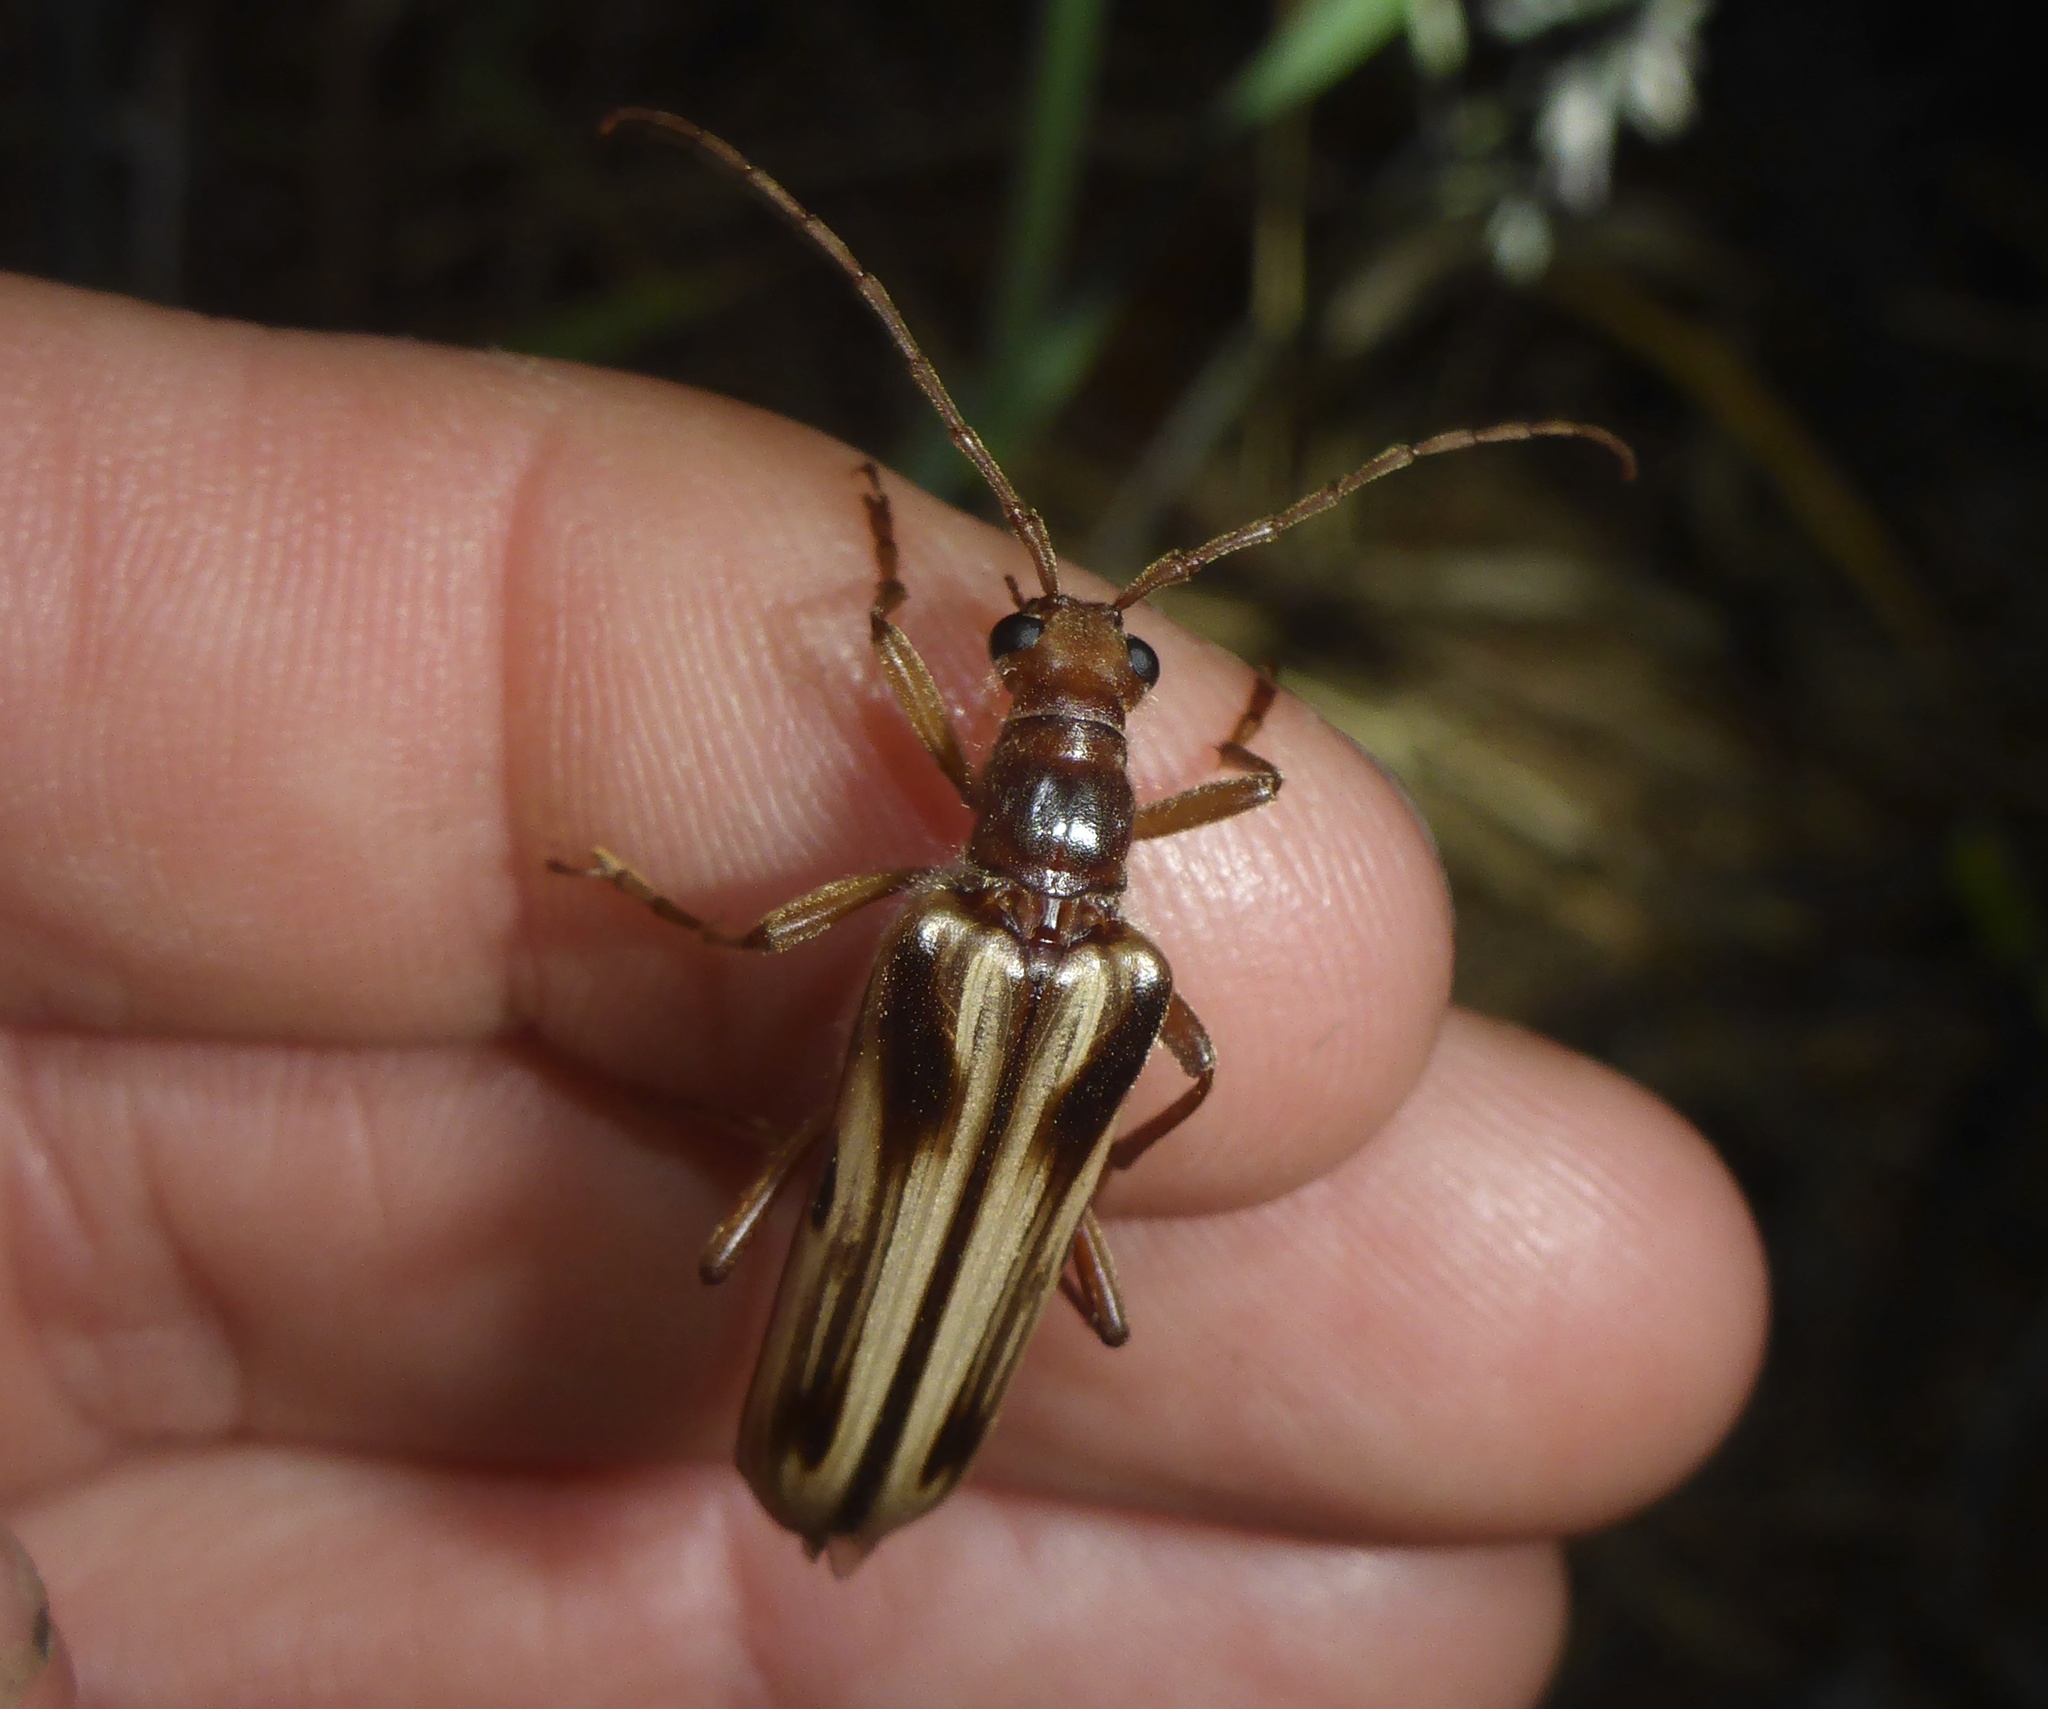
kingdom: Animalia
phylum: Arthropoda
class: Insecta
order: Coleoptera
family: Cerambycidae
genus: Ortholeptura
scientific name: Ortholeptura insignis
